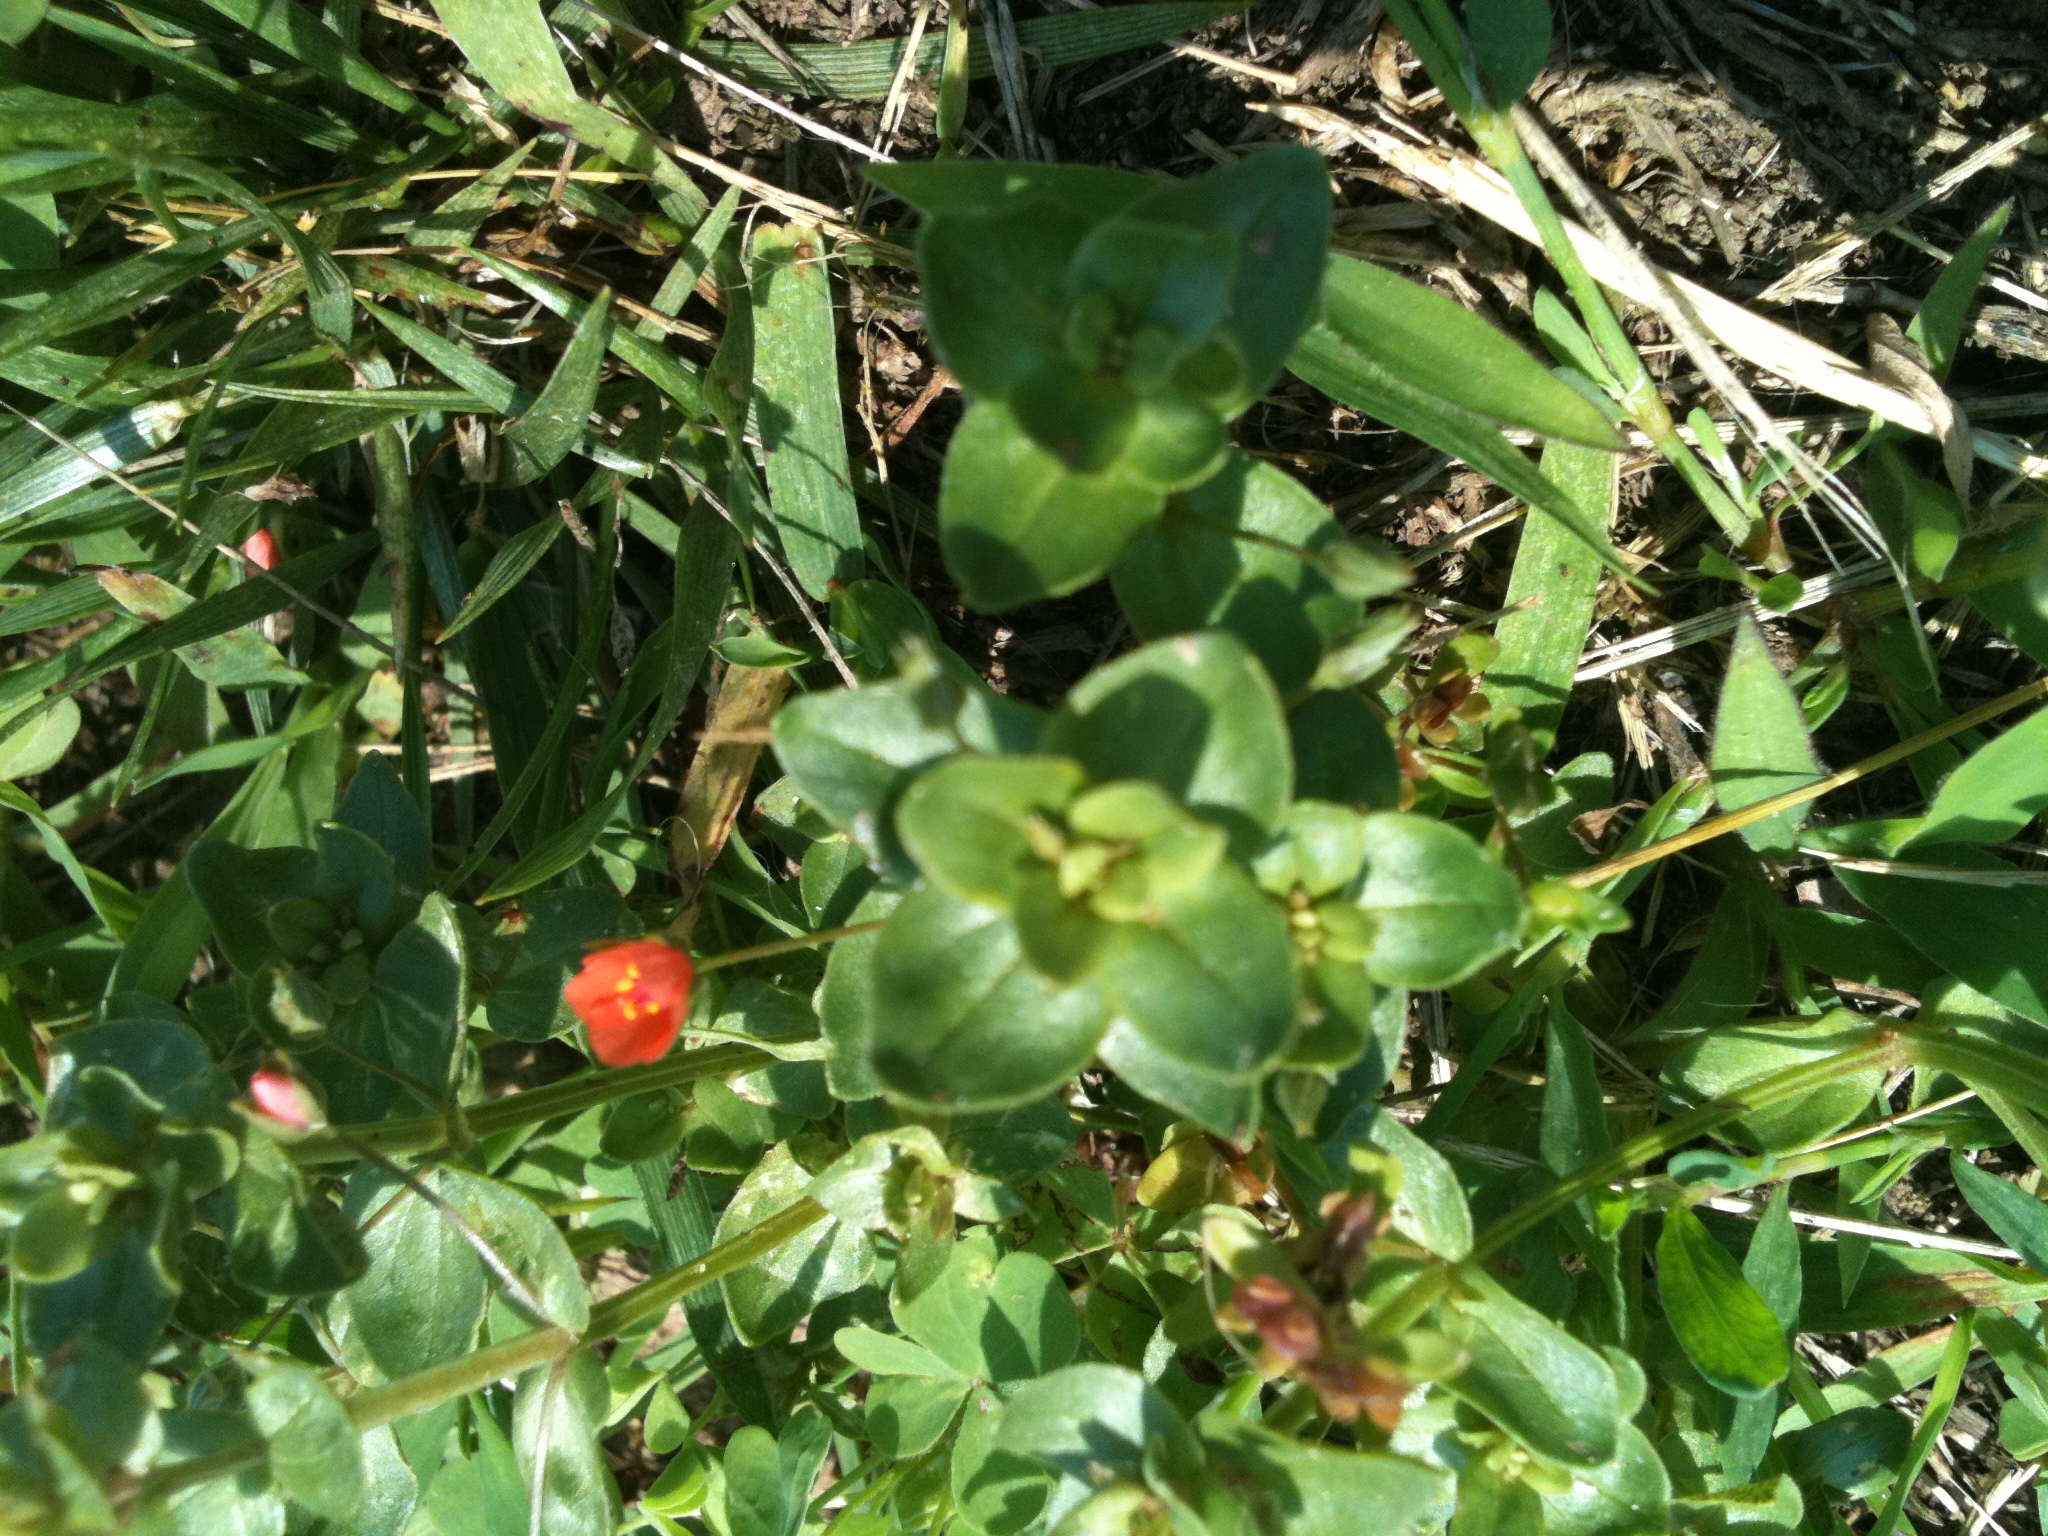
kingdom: Plantae
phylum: Tracheophyta
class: Magnoliopsida
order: Ericales
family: Primulaceae
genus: Lysimachia
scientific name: Lysimachia arvensis
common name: Scarlet pimpernel
